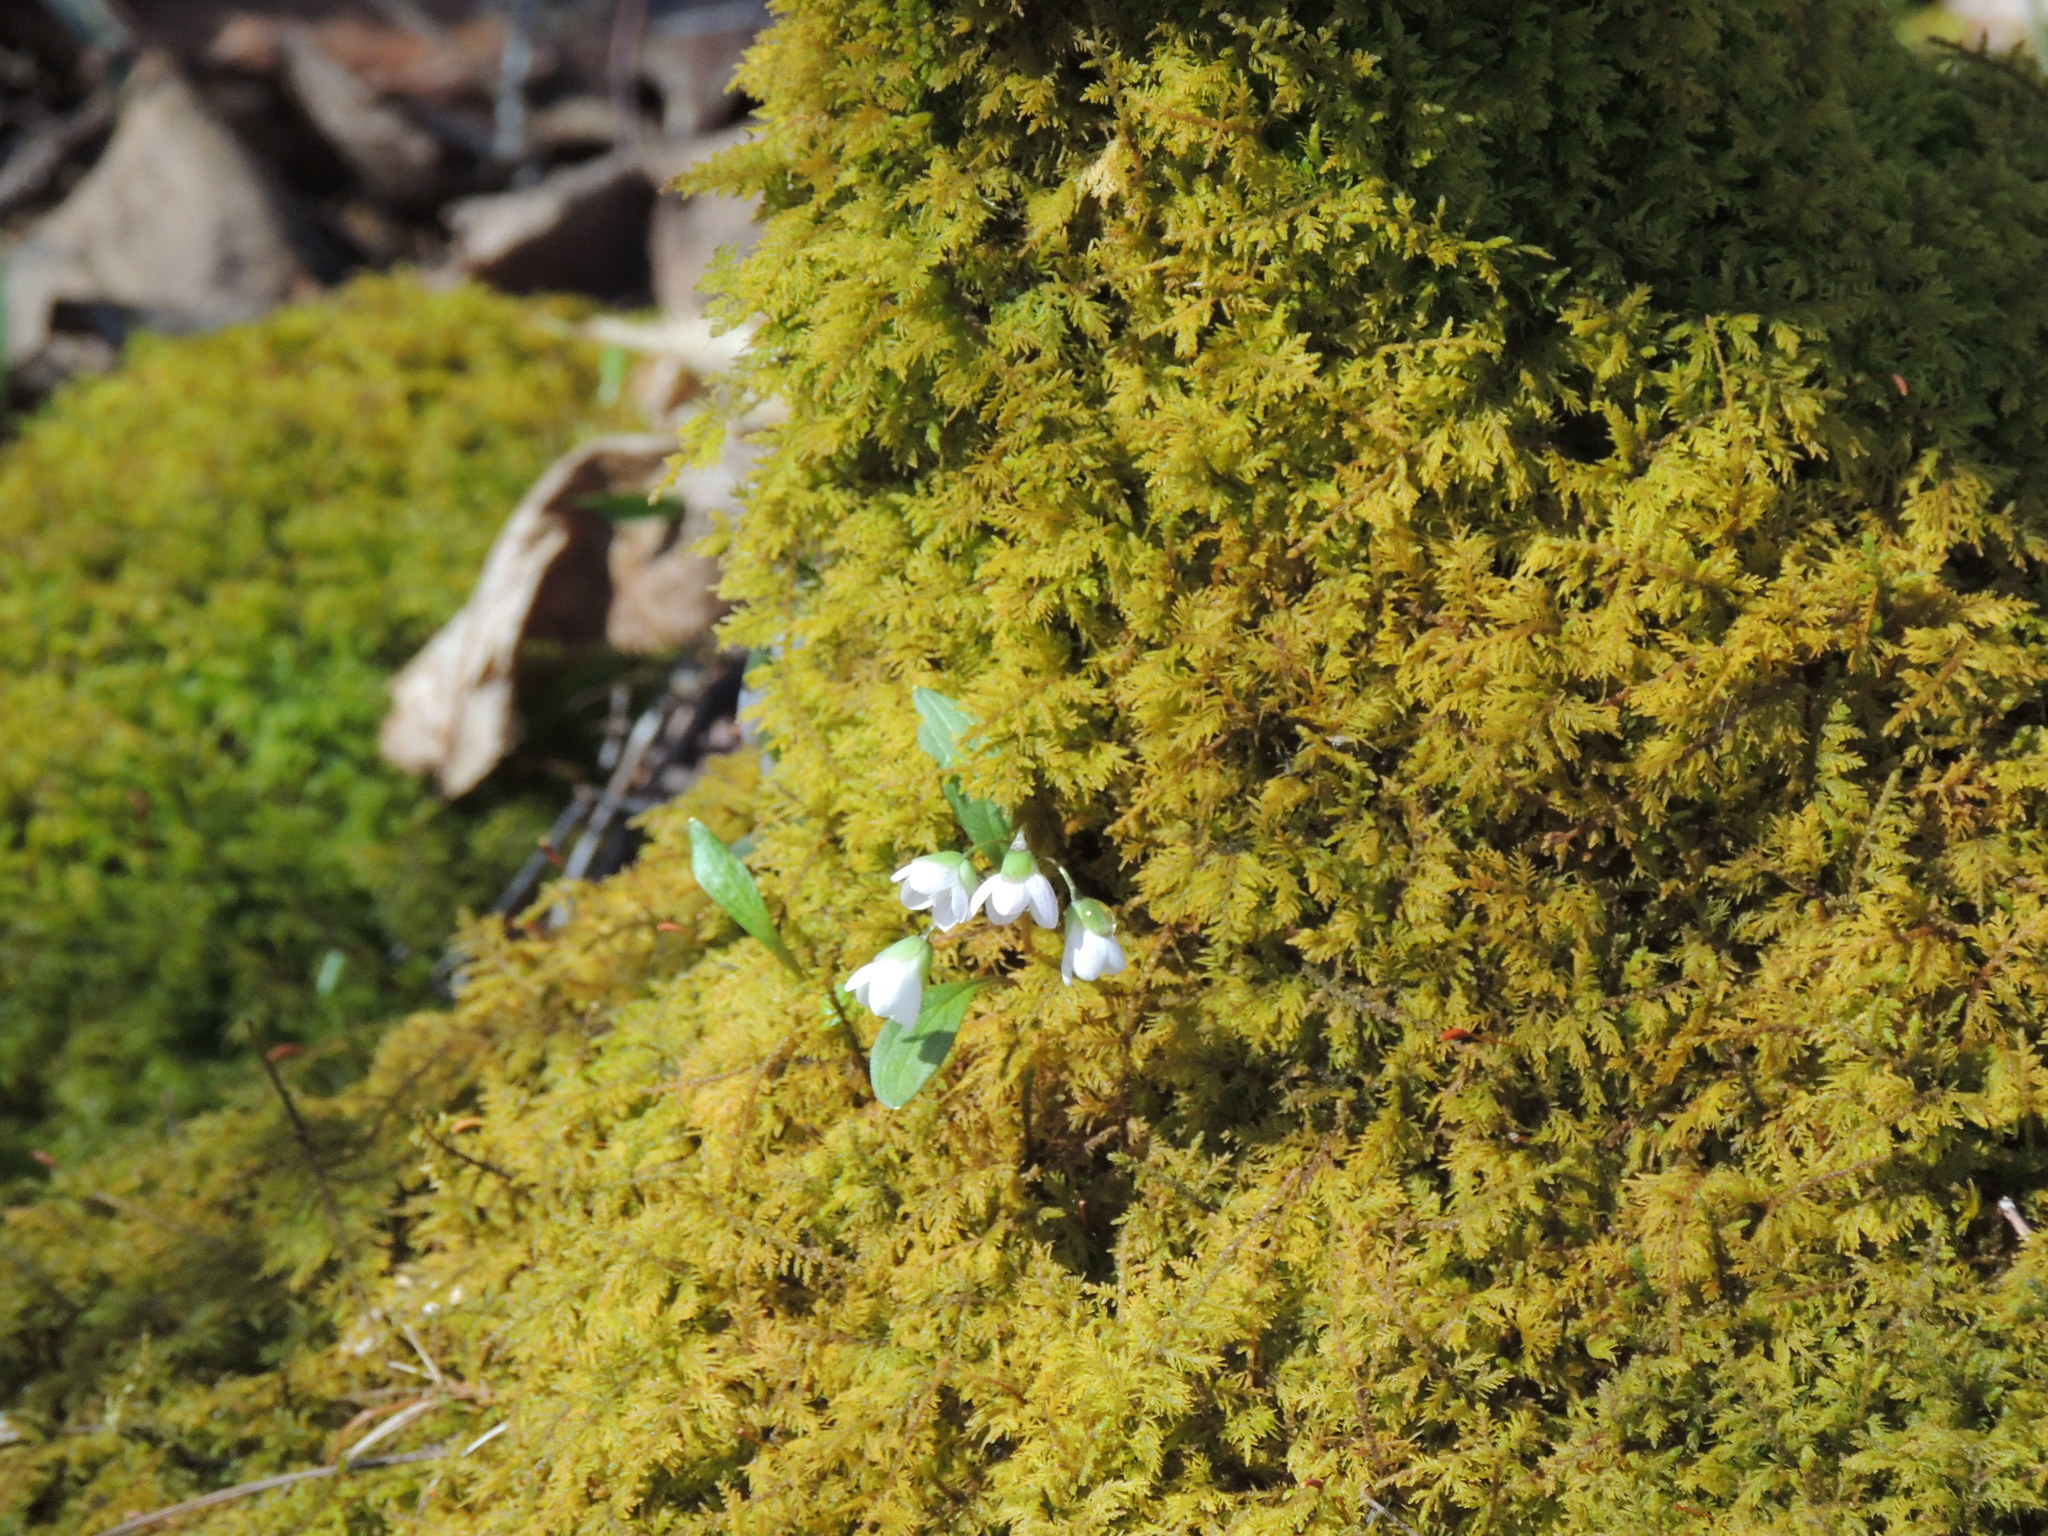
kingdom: Plantae
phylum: Tracheophyta
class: Magnoliopsida
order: Caryophyllales
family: Montiaceae
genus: Claytonia
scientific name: Claytonia caroliniana
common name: Carolina spring beauty
